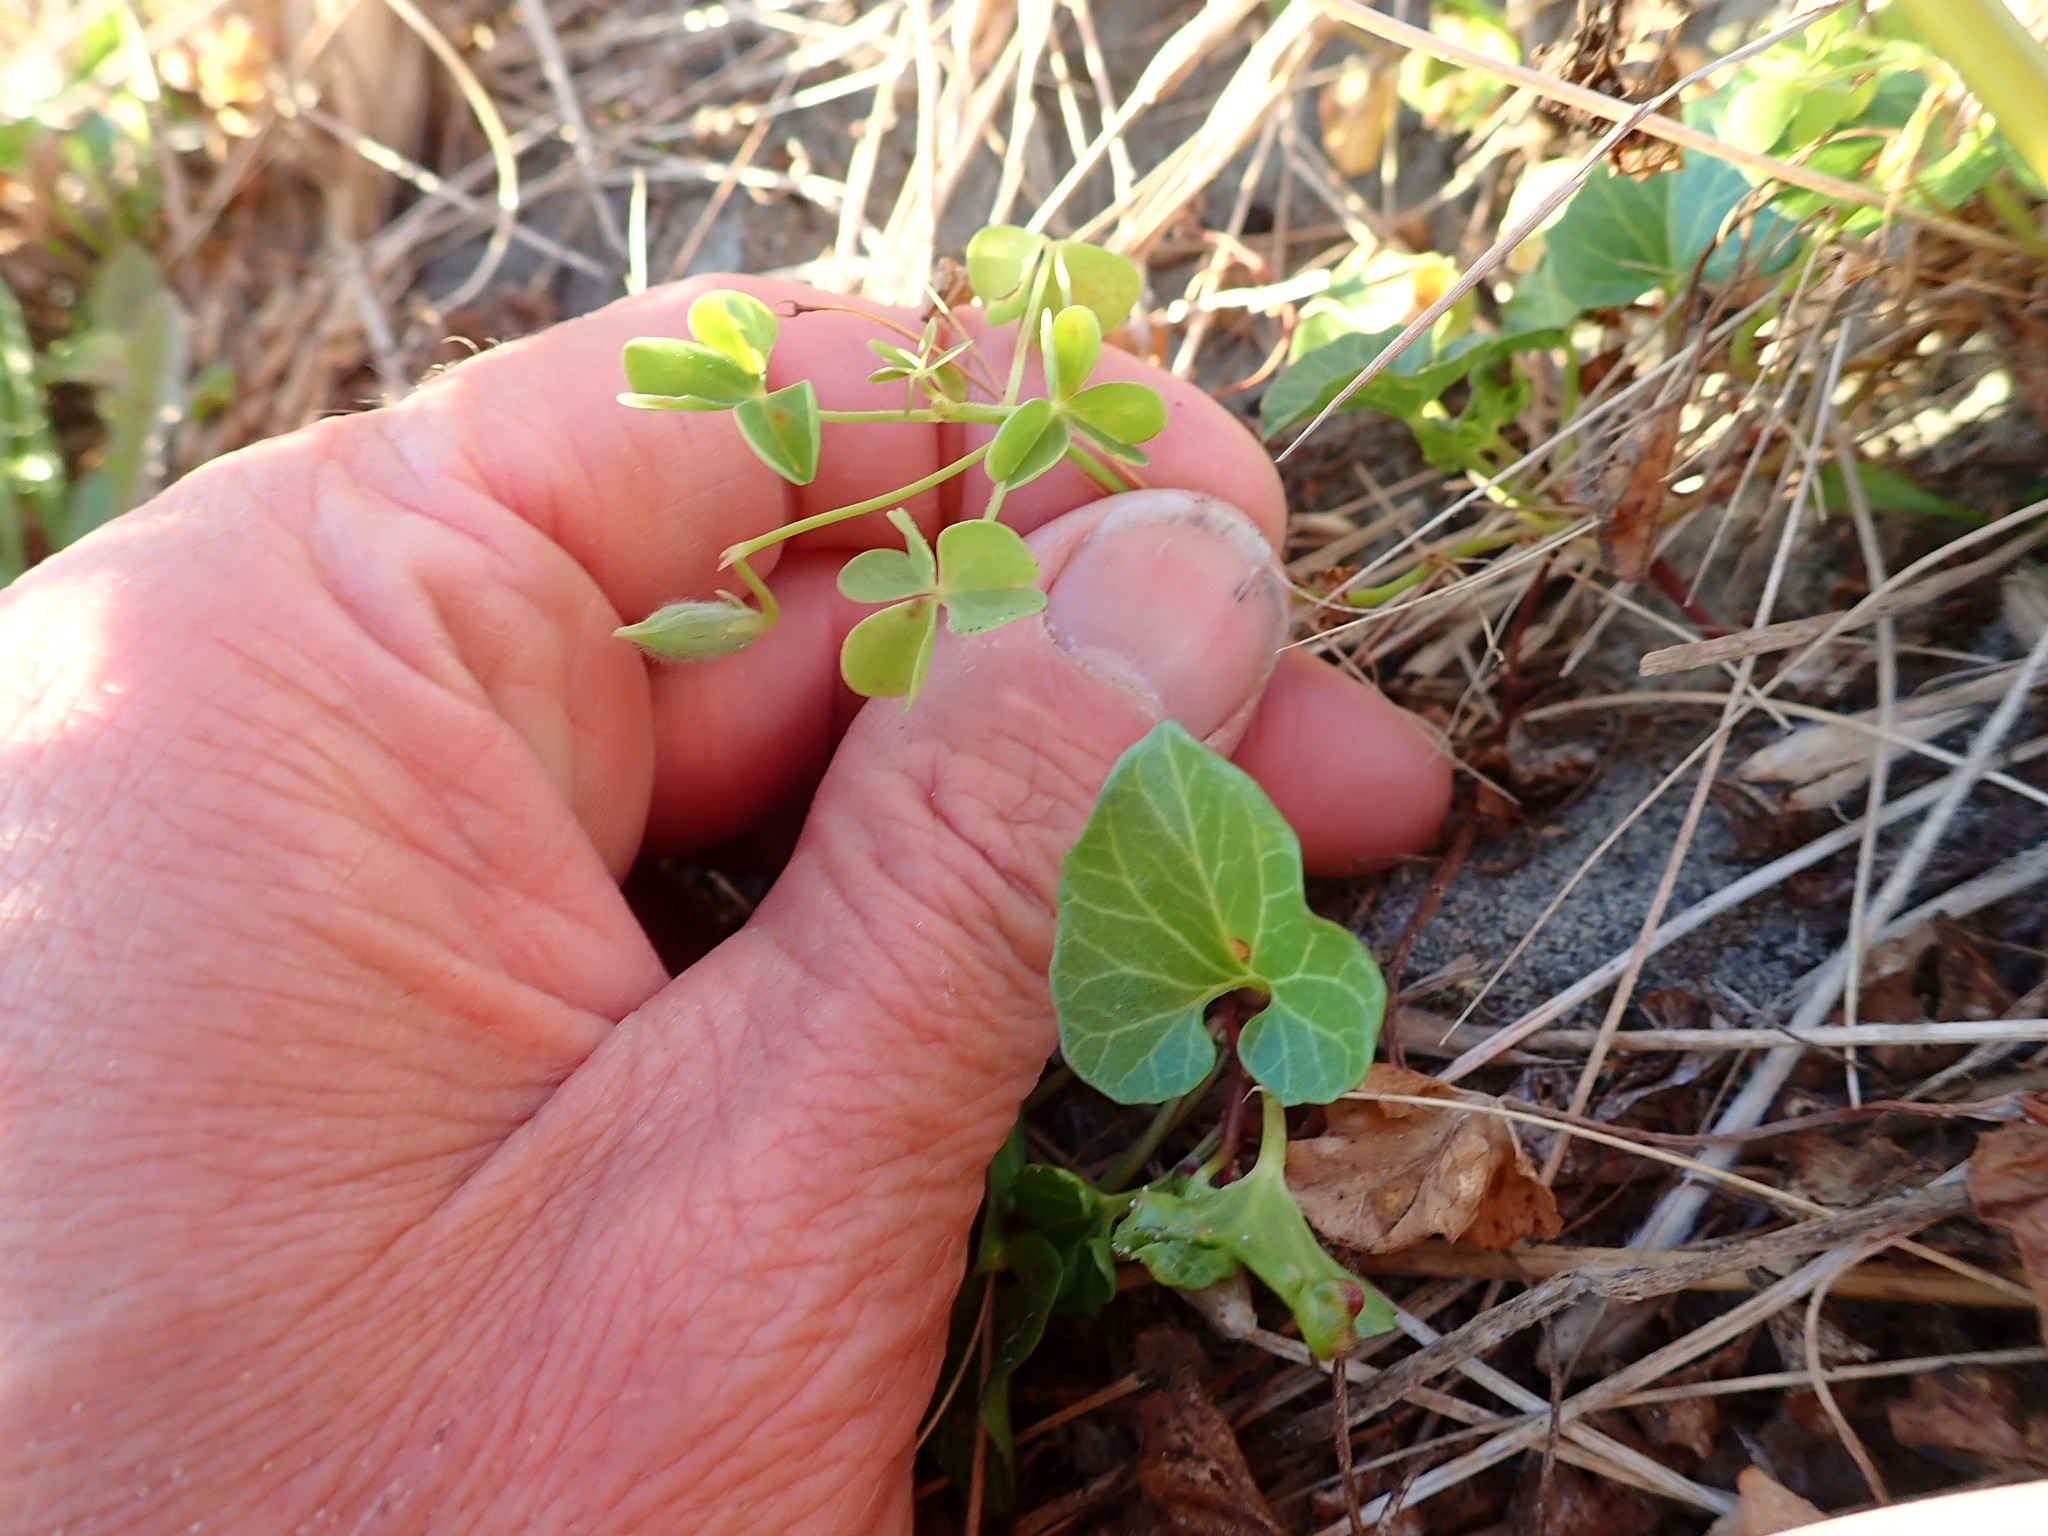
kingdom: Plantae
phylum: Tracheophyta
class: Magnoliopsida
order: Oxalidales
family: Oxalidaceae
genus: Oxalis
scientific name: Oxalis corniculata
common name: Procumbent yellow-sorrel
